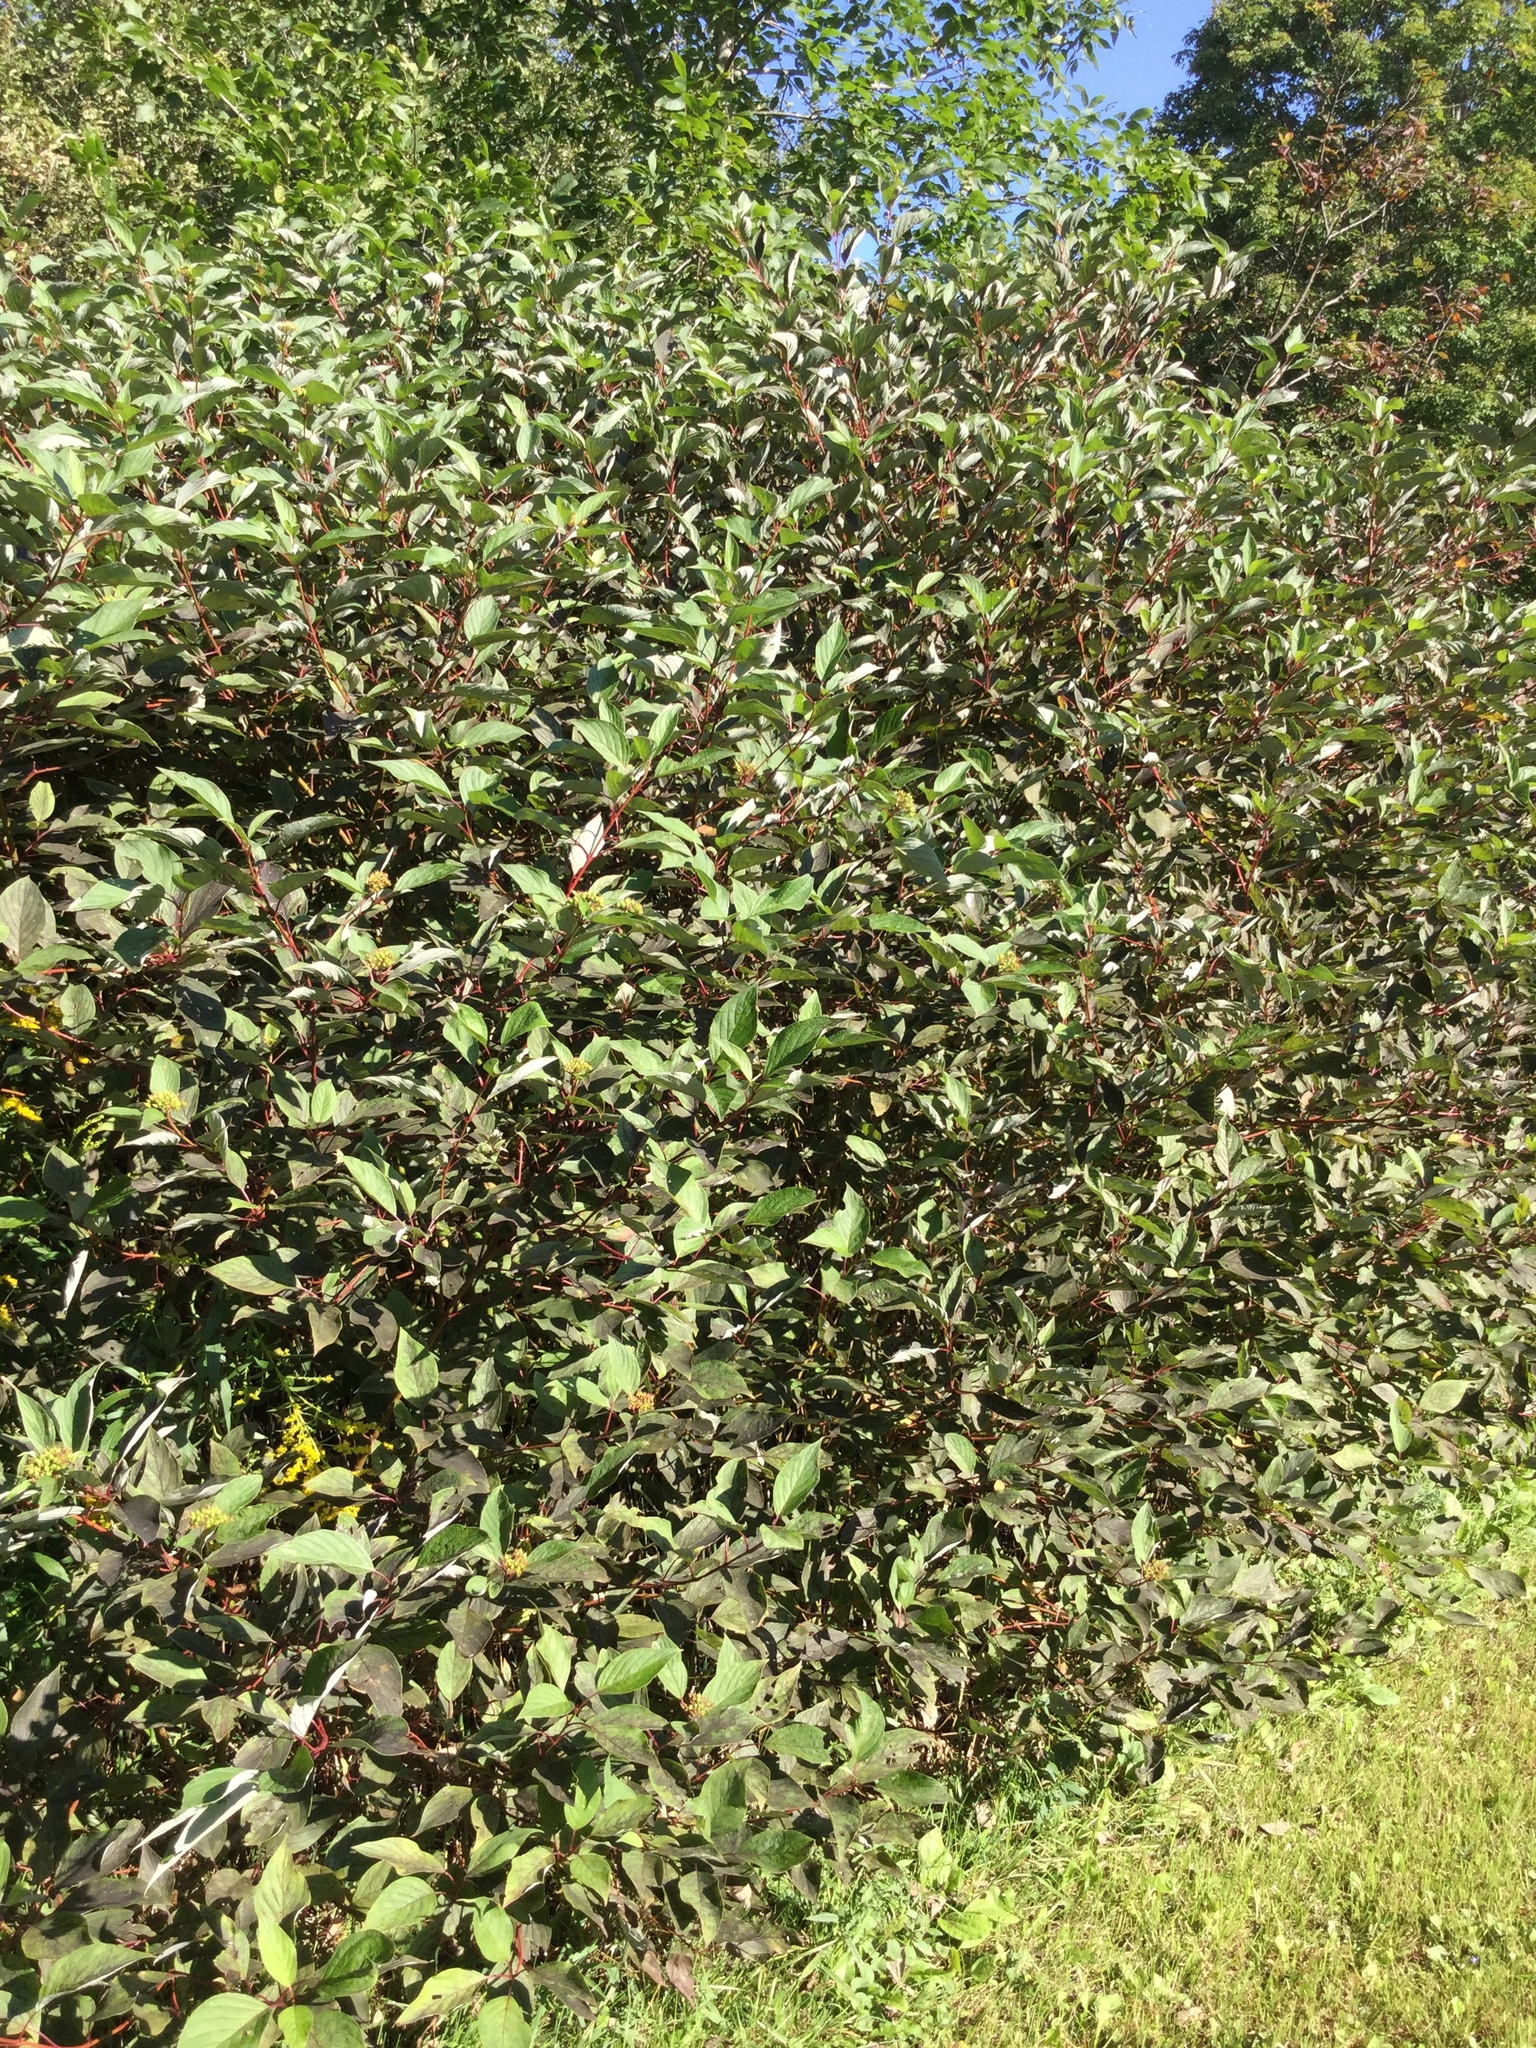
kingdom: Plantae
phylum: Tracheophyta
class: Magnoliopsida
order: Cornales
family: Cornaceae
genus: Cornus
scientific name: Cornus sericea
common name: Red-osier dogwood
